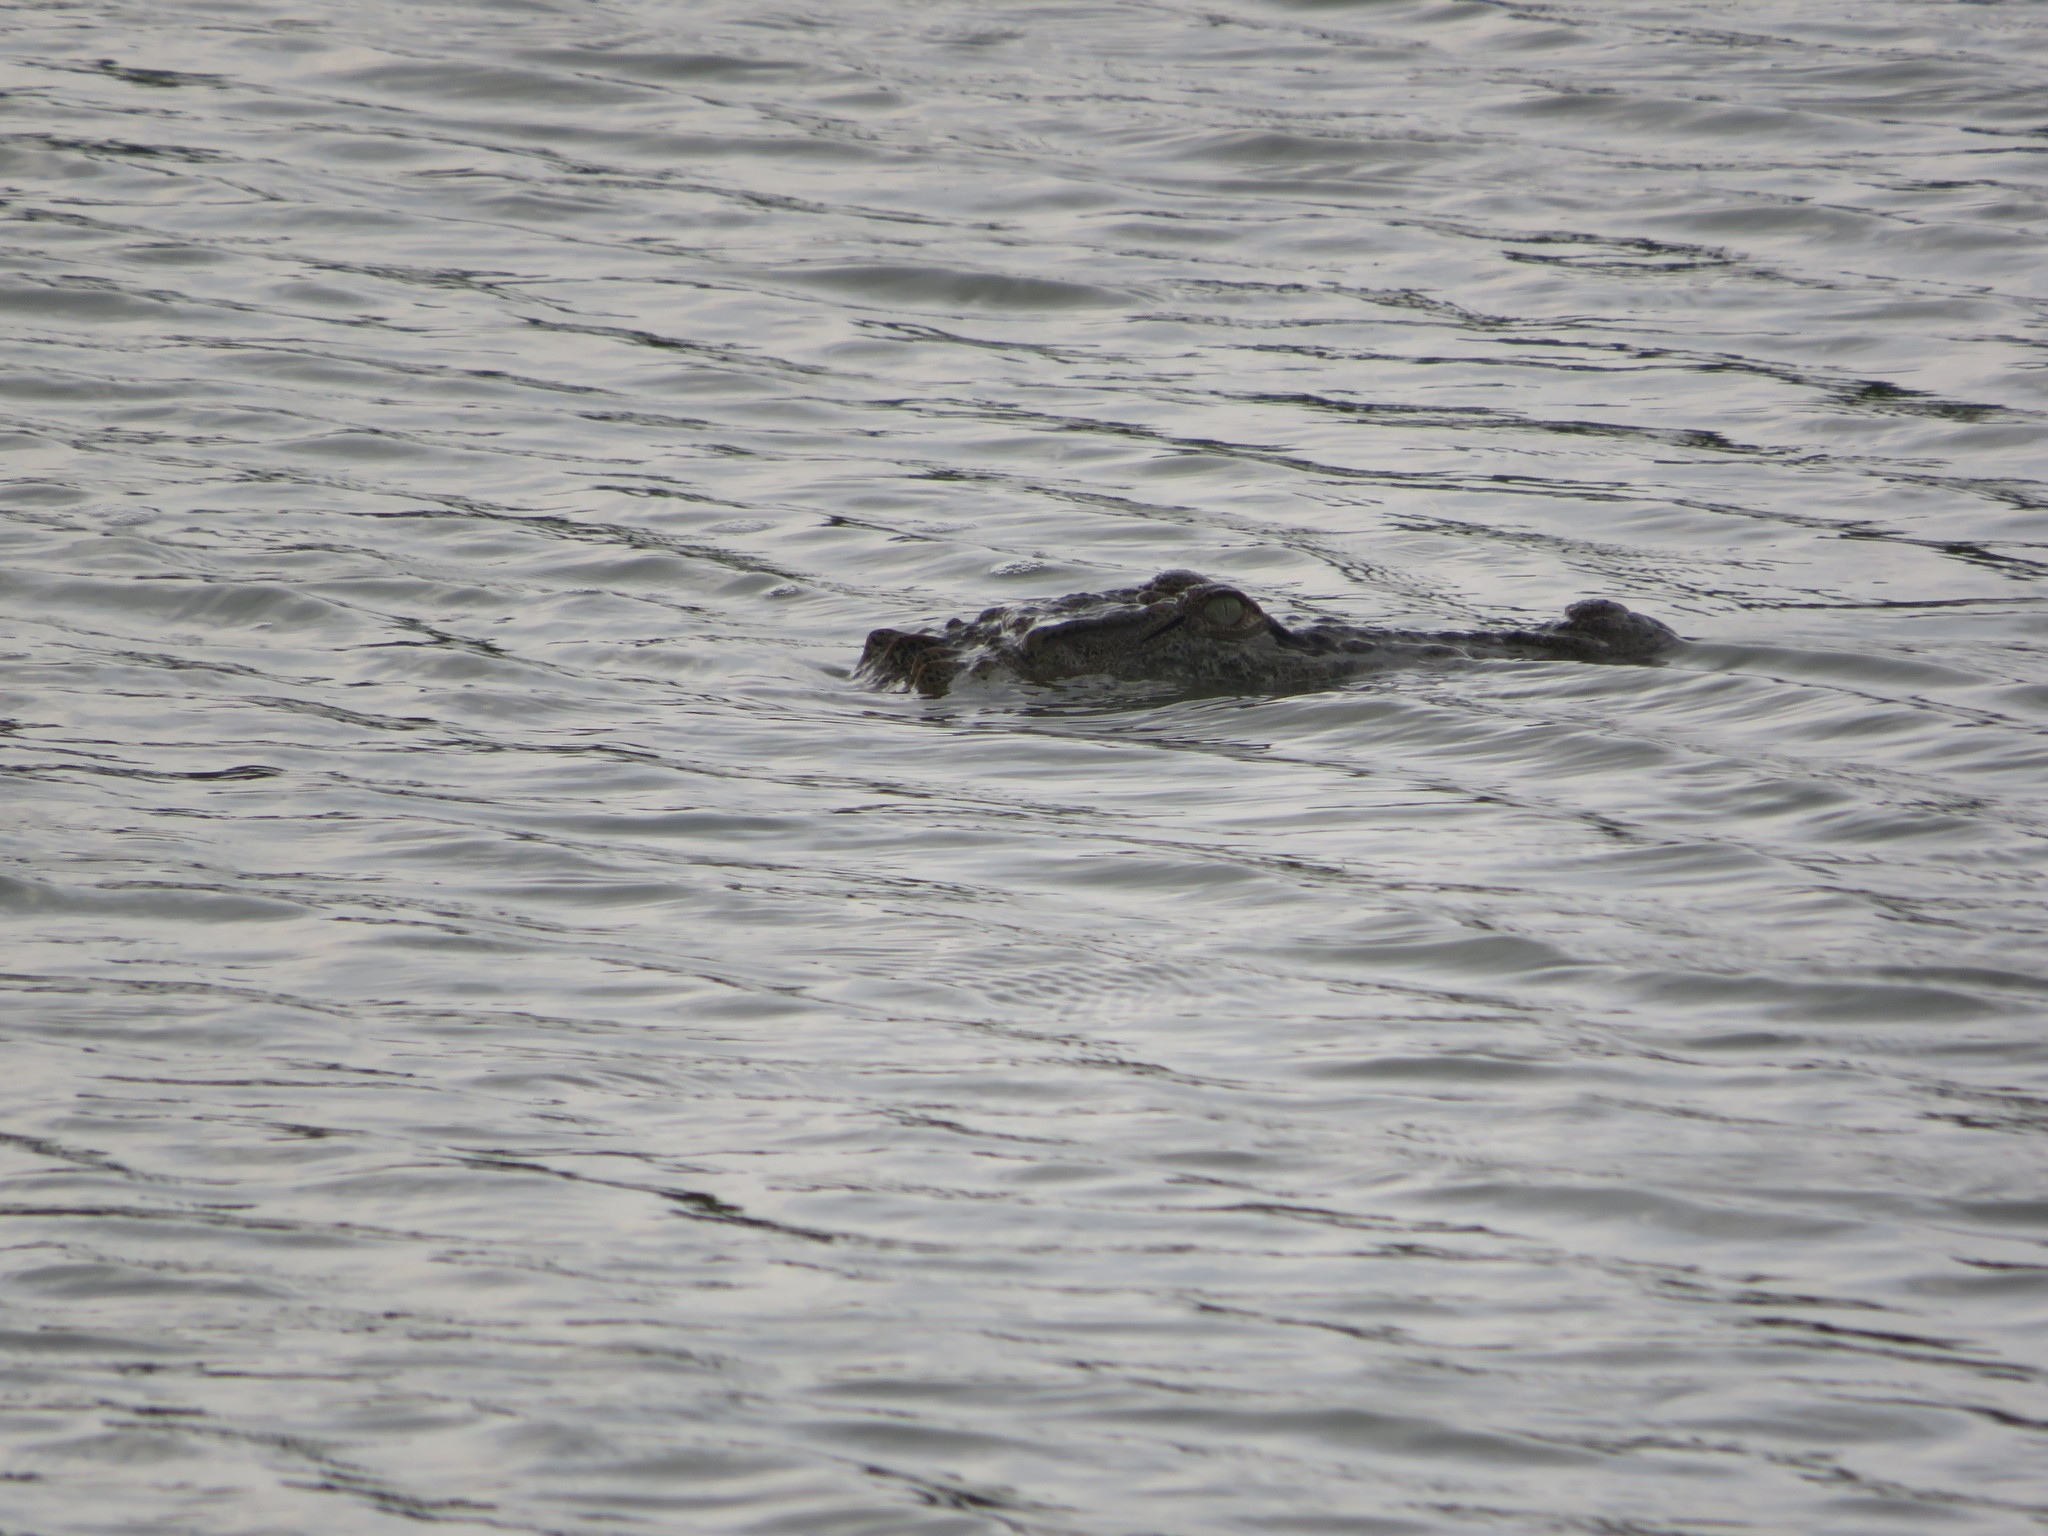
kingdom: Animalia
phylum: Chordata
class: Crocodylia
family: Crocodylidae
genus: Crocodylus
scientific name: Crocodylus palustris
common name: Mugger crocodile
